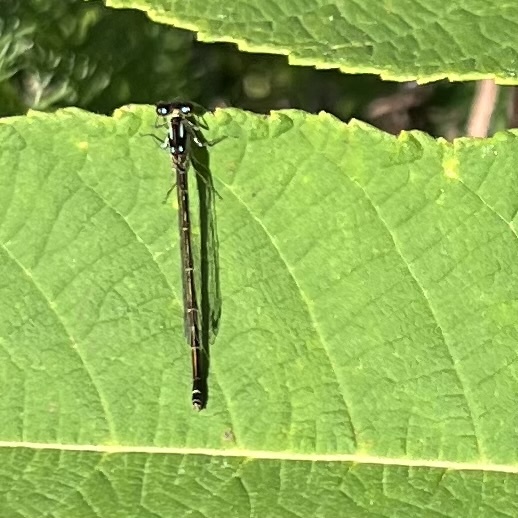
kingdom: Animalia
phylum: Arthropoda
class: Insecta
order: Odonata
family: Coenagrionidae
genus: Ischnura
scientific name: Ischnura posita
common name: Fragile forktail
